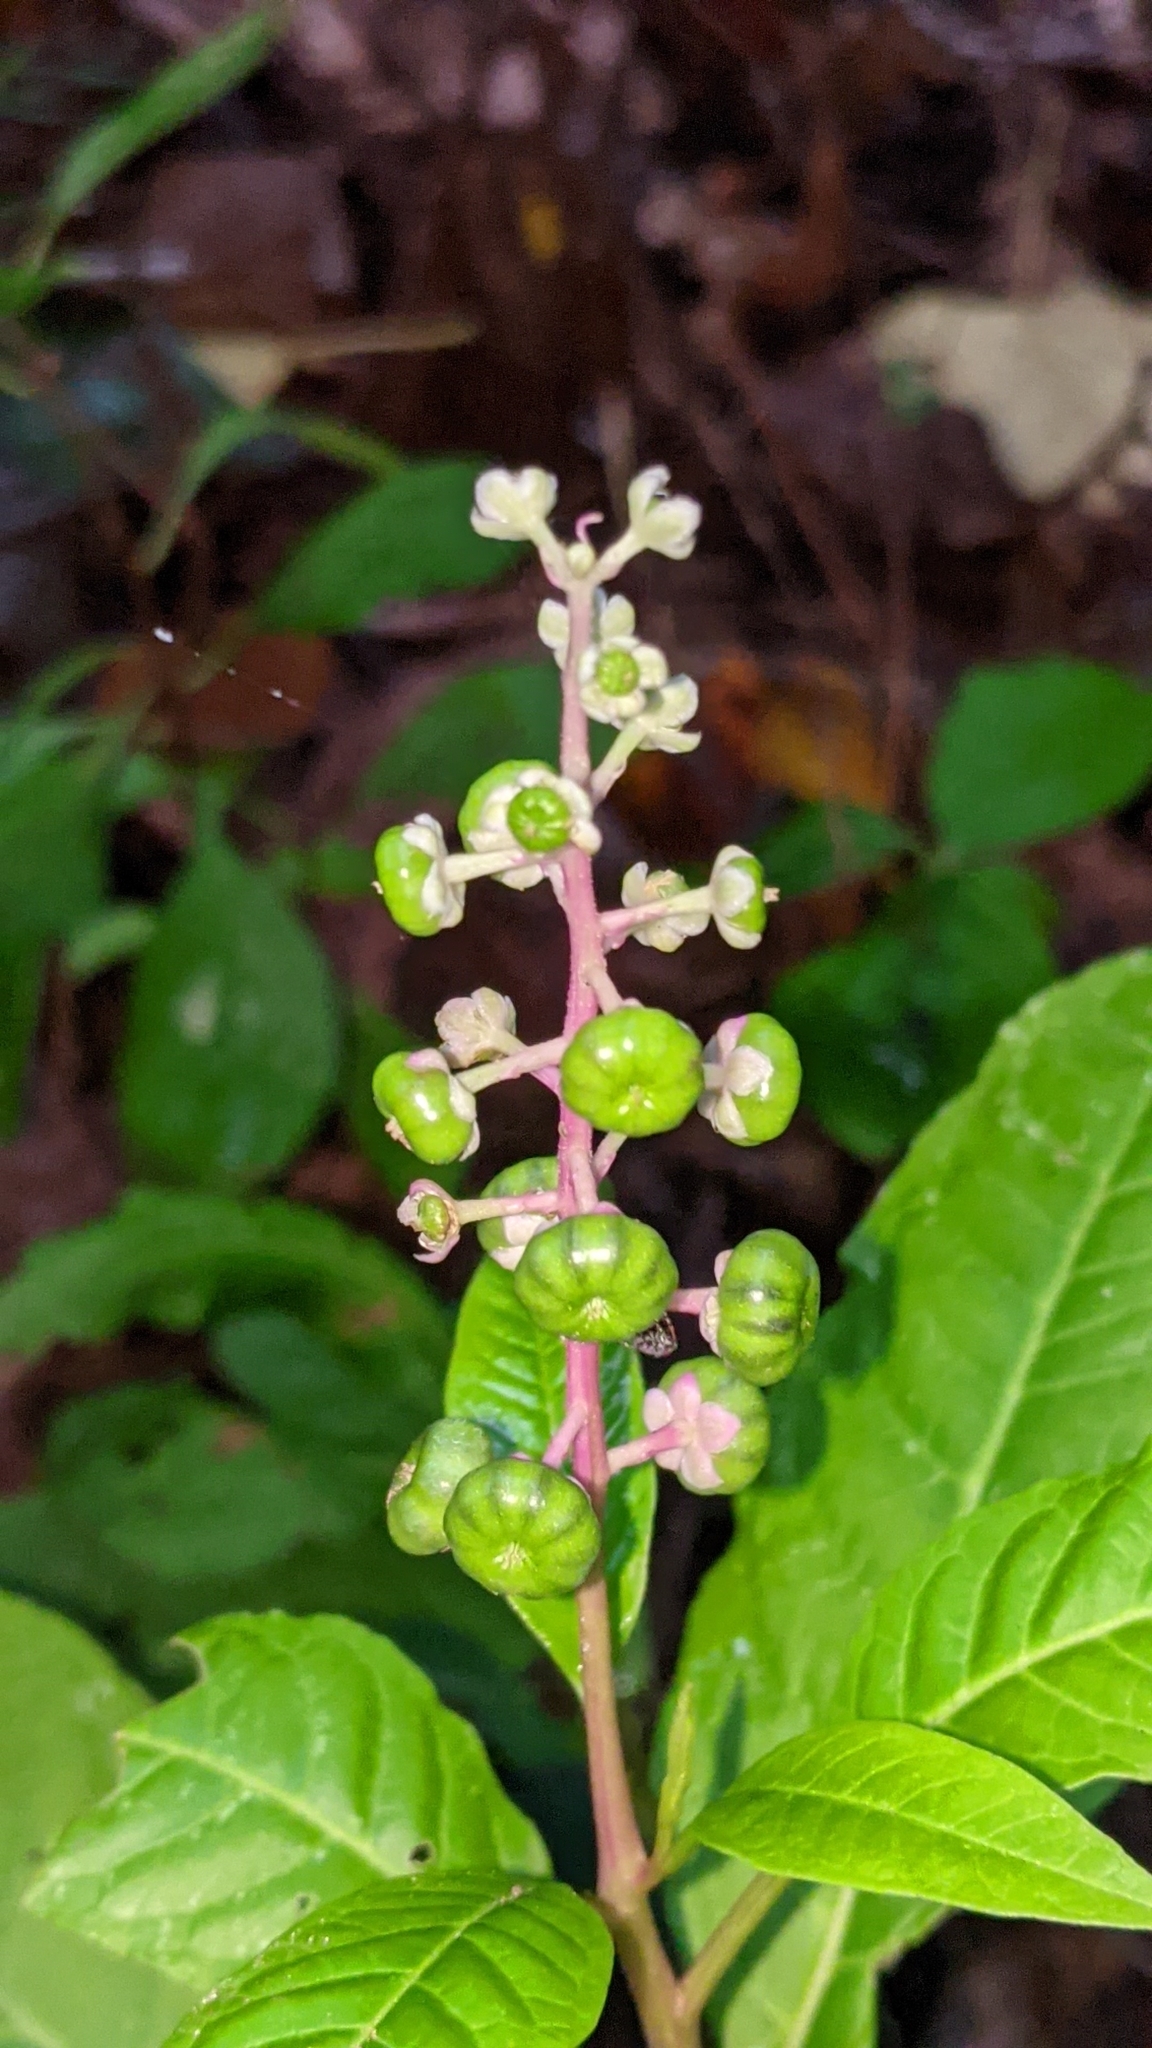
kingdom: Plantae
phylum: Tracheophyta
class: Magnoliopsida
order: Caryophyllales
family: Phytolaccaceae
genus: Phytolacca
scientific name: Phytolacca americana
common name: American pokeweed
